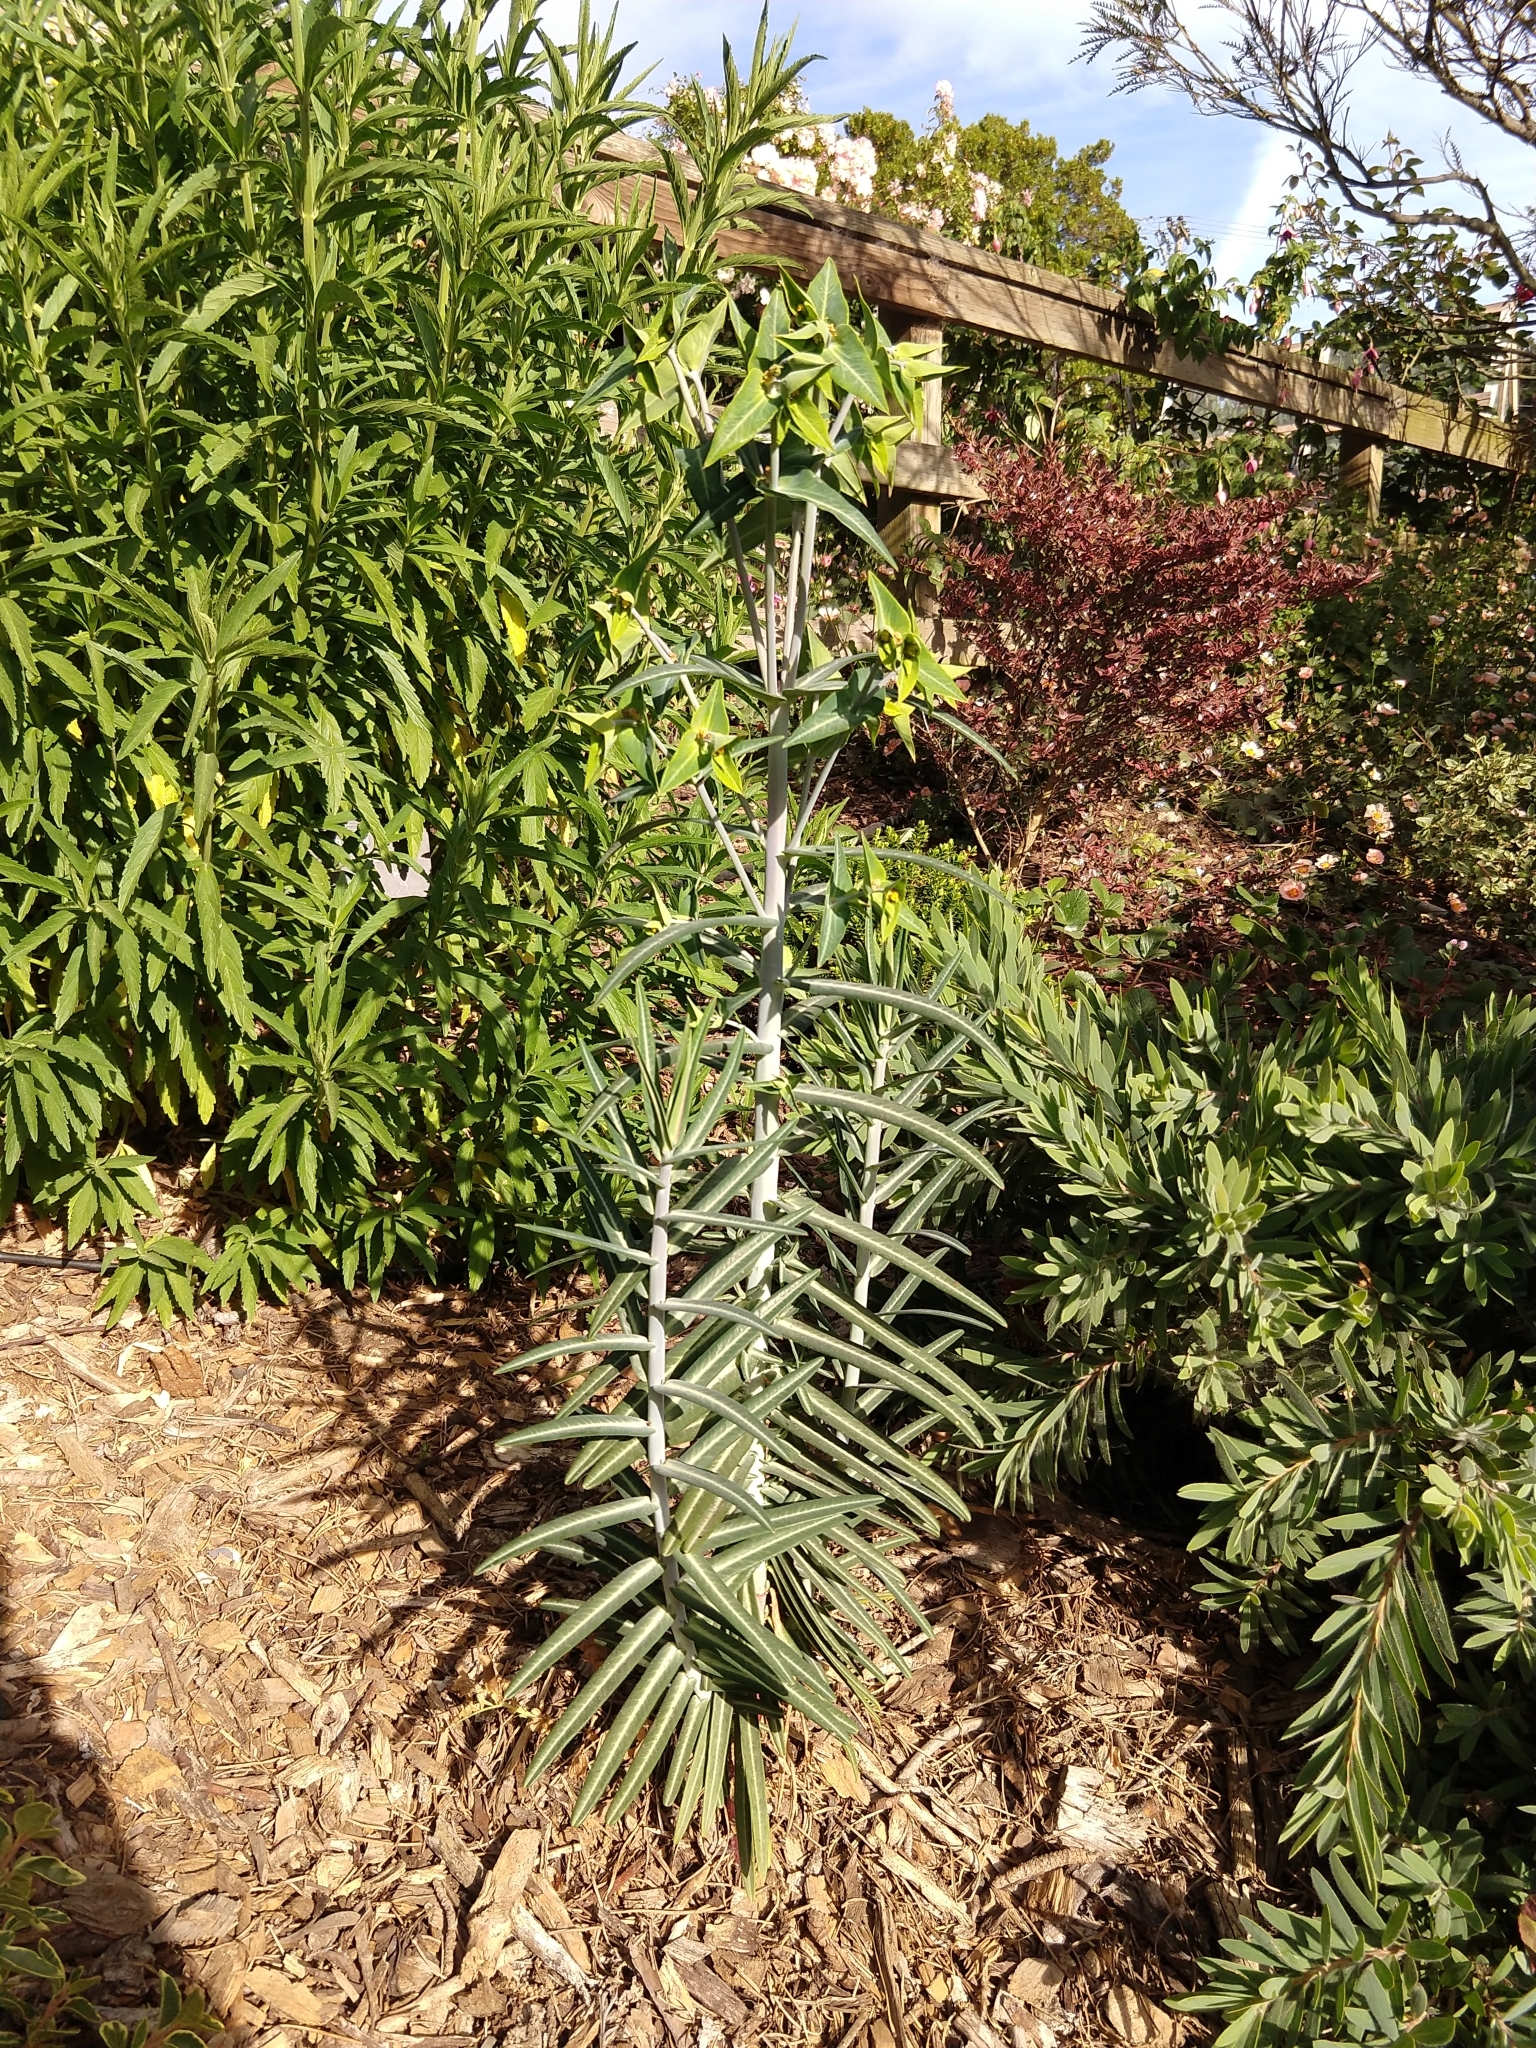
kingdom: Plantae
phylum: Tracheophyta
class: Magnoliopsida
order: Malpighiales
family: Euphorbiaceae
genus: Euphorbia
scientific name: Euphorbia lathyris
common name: Caper spurge
